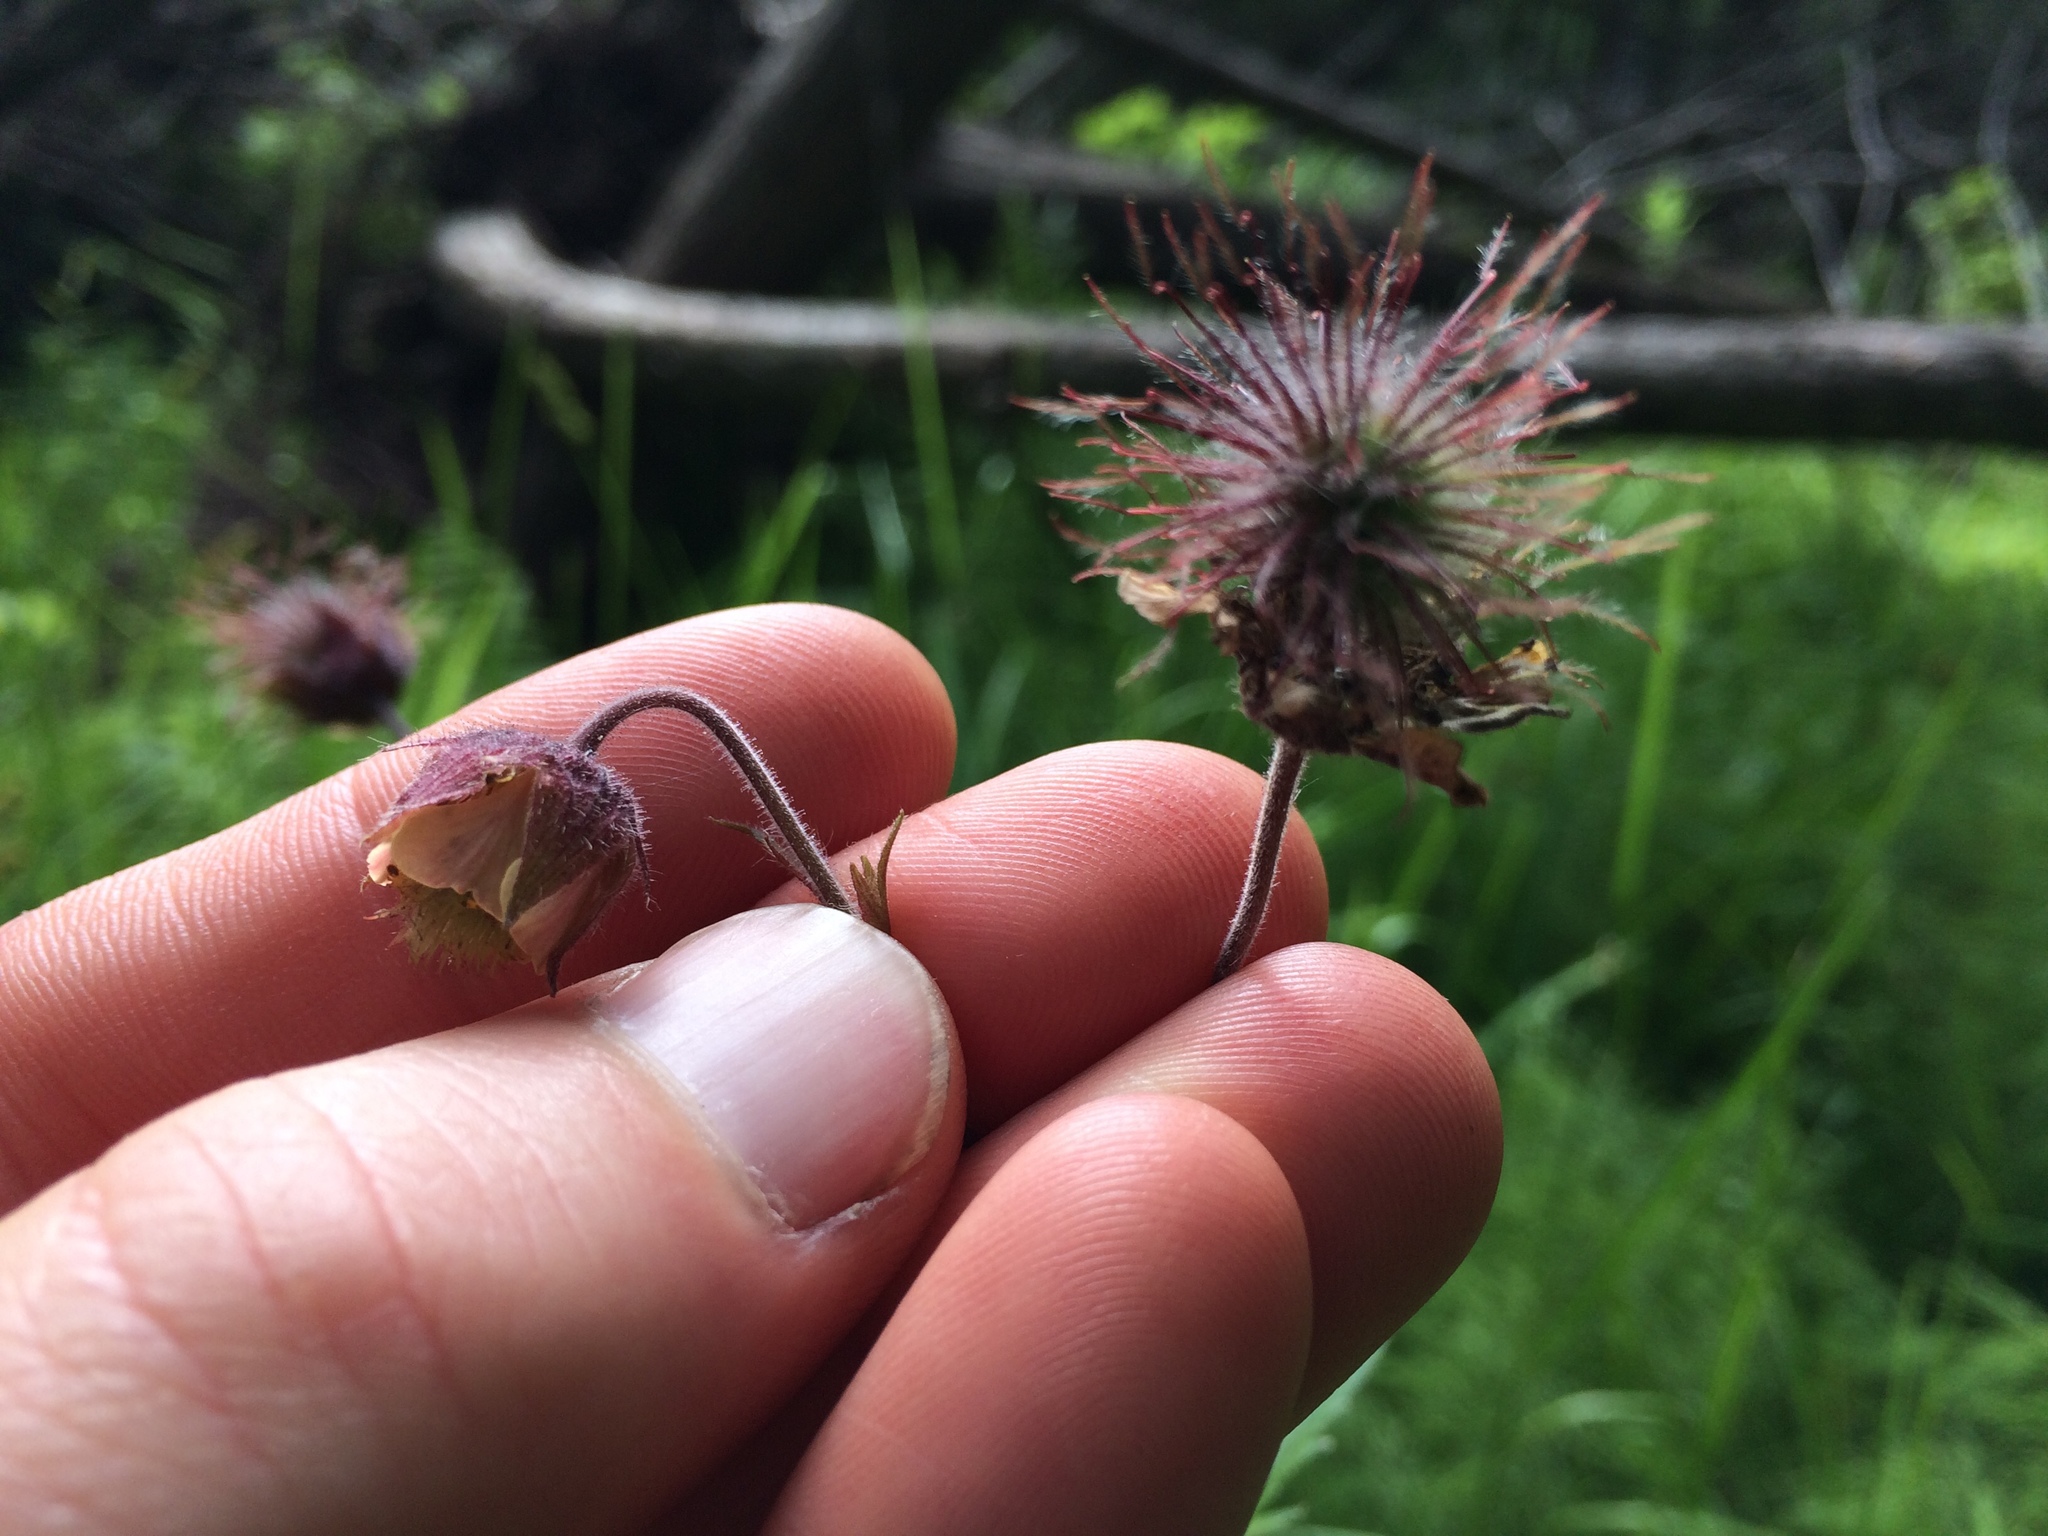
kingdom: Plantae
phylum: Tracheophyta
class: Magnoliopsida
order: Rosales
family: Rosaceae
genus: Geum
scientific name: Geum rivale
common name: Water avens
